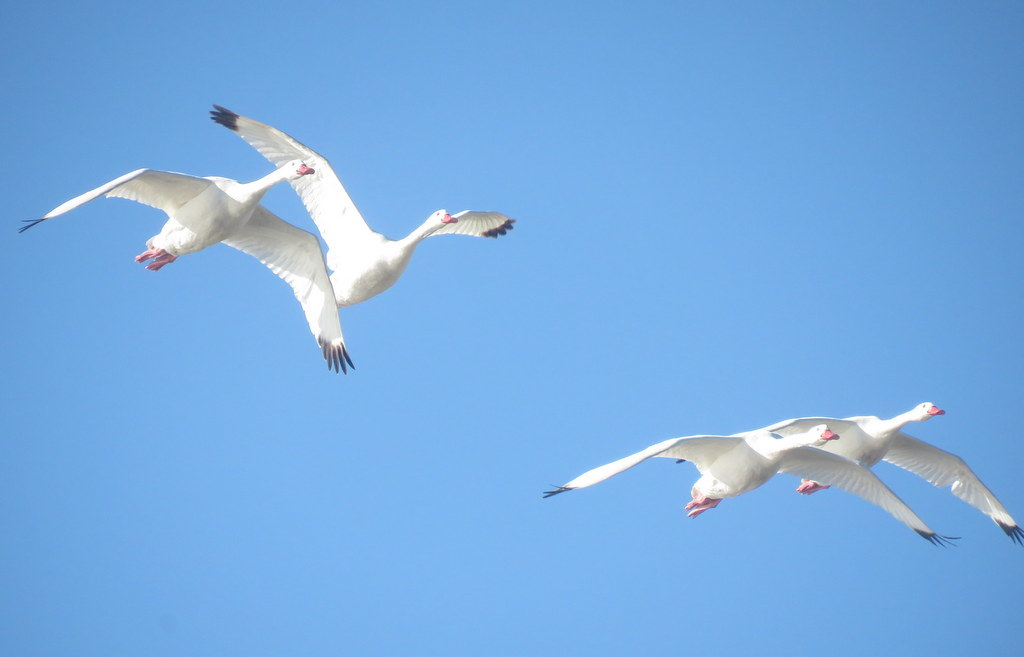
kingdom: Animalia
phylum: Chordata
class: Aves
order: Anseriformes
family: Anatidae
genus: Coscoroba
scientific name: Coscoroba coscoroba
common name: Coscoroba swan
